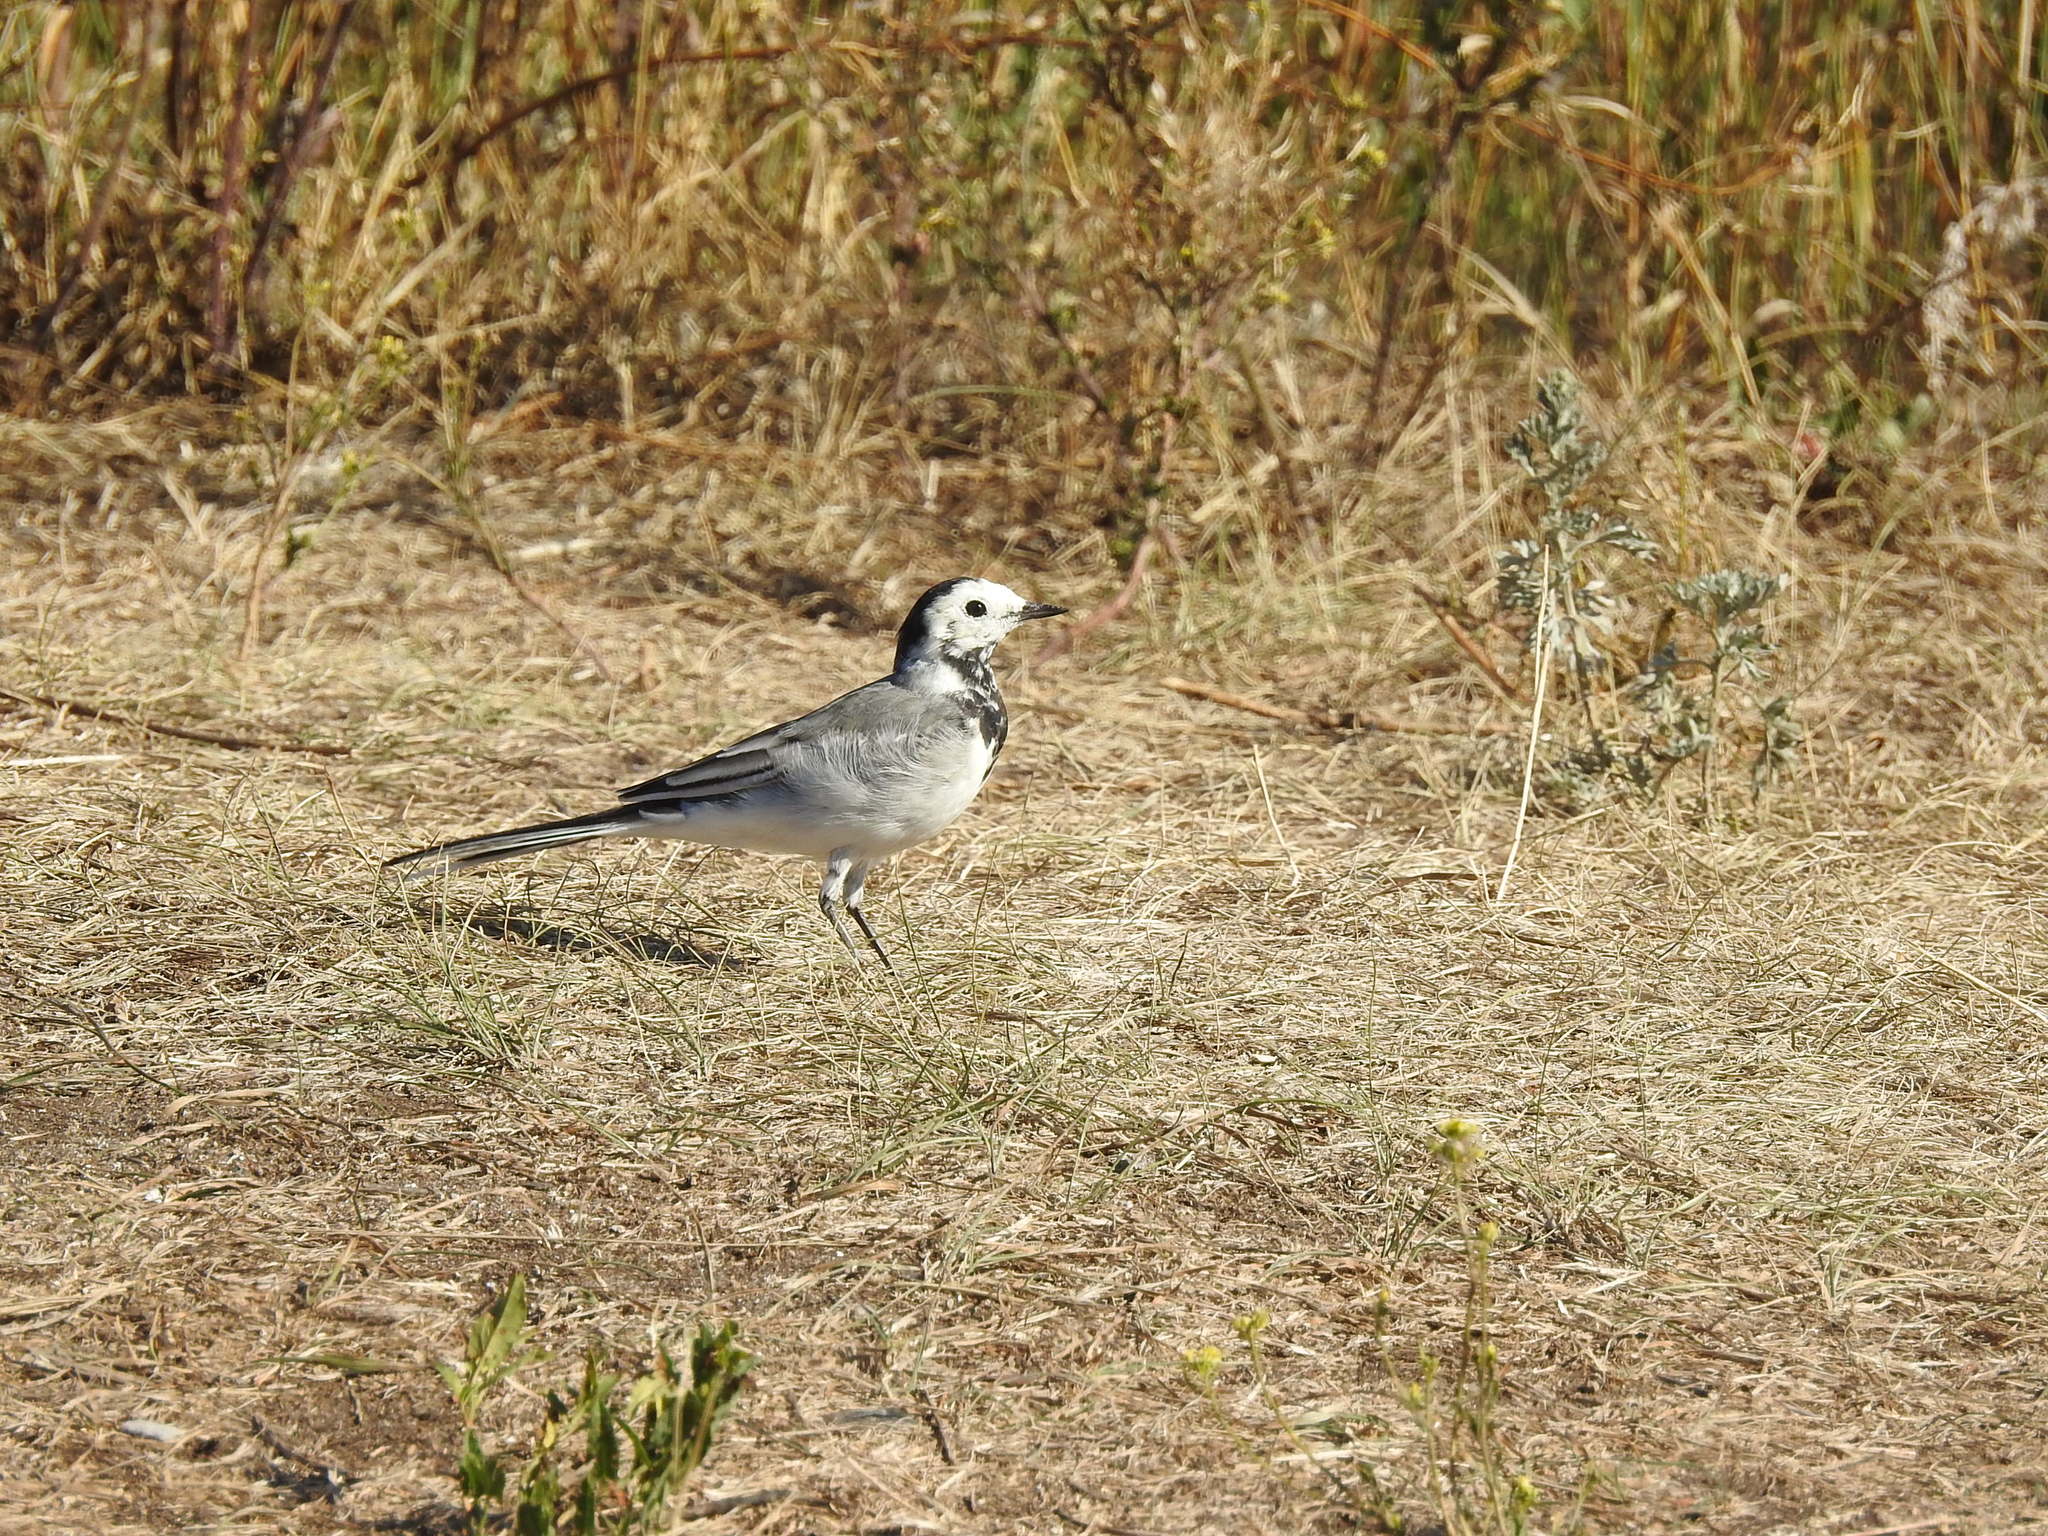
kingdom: Animalia
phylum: Chordata
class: Aves
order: Passeriformes
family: Motacillidae
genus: Motacilla
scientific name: Motacilla alba
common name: White wagtail
